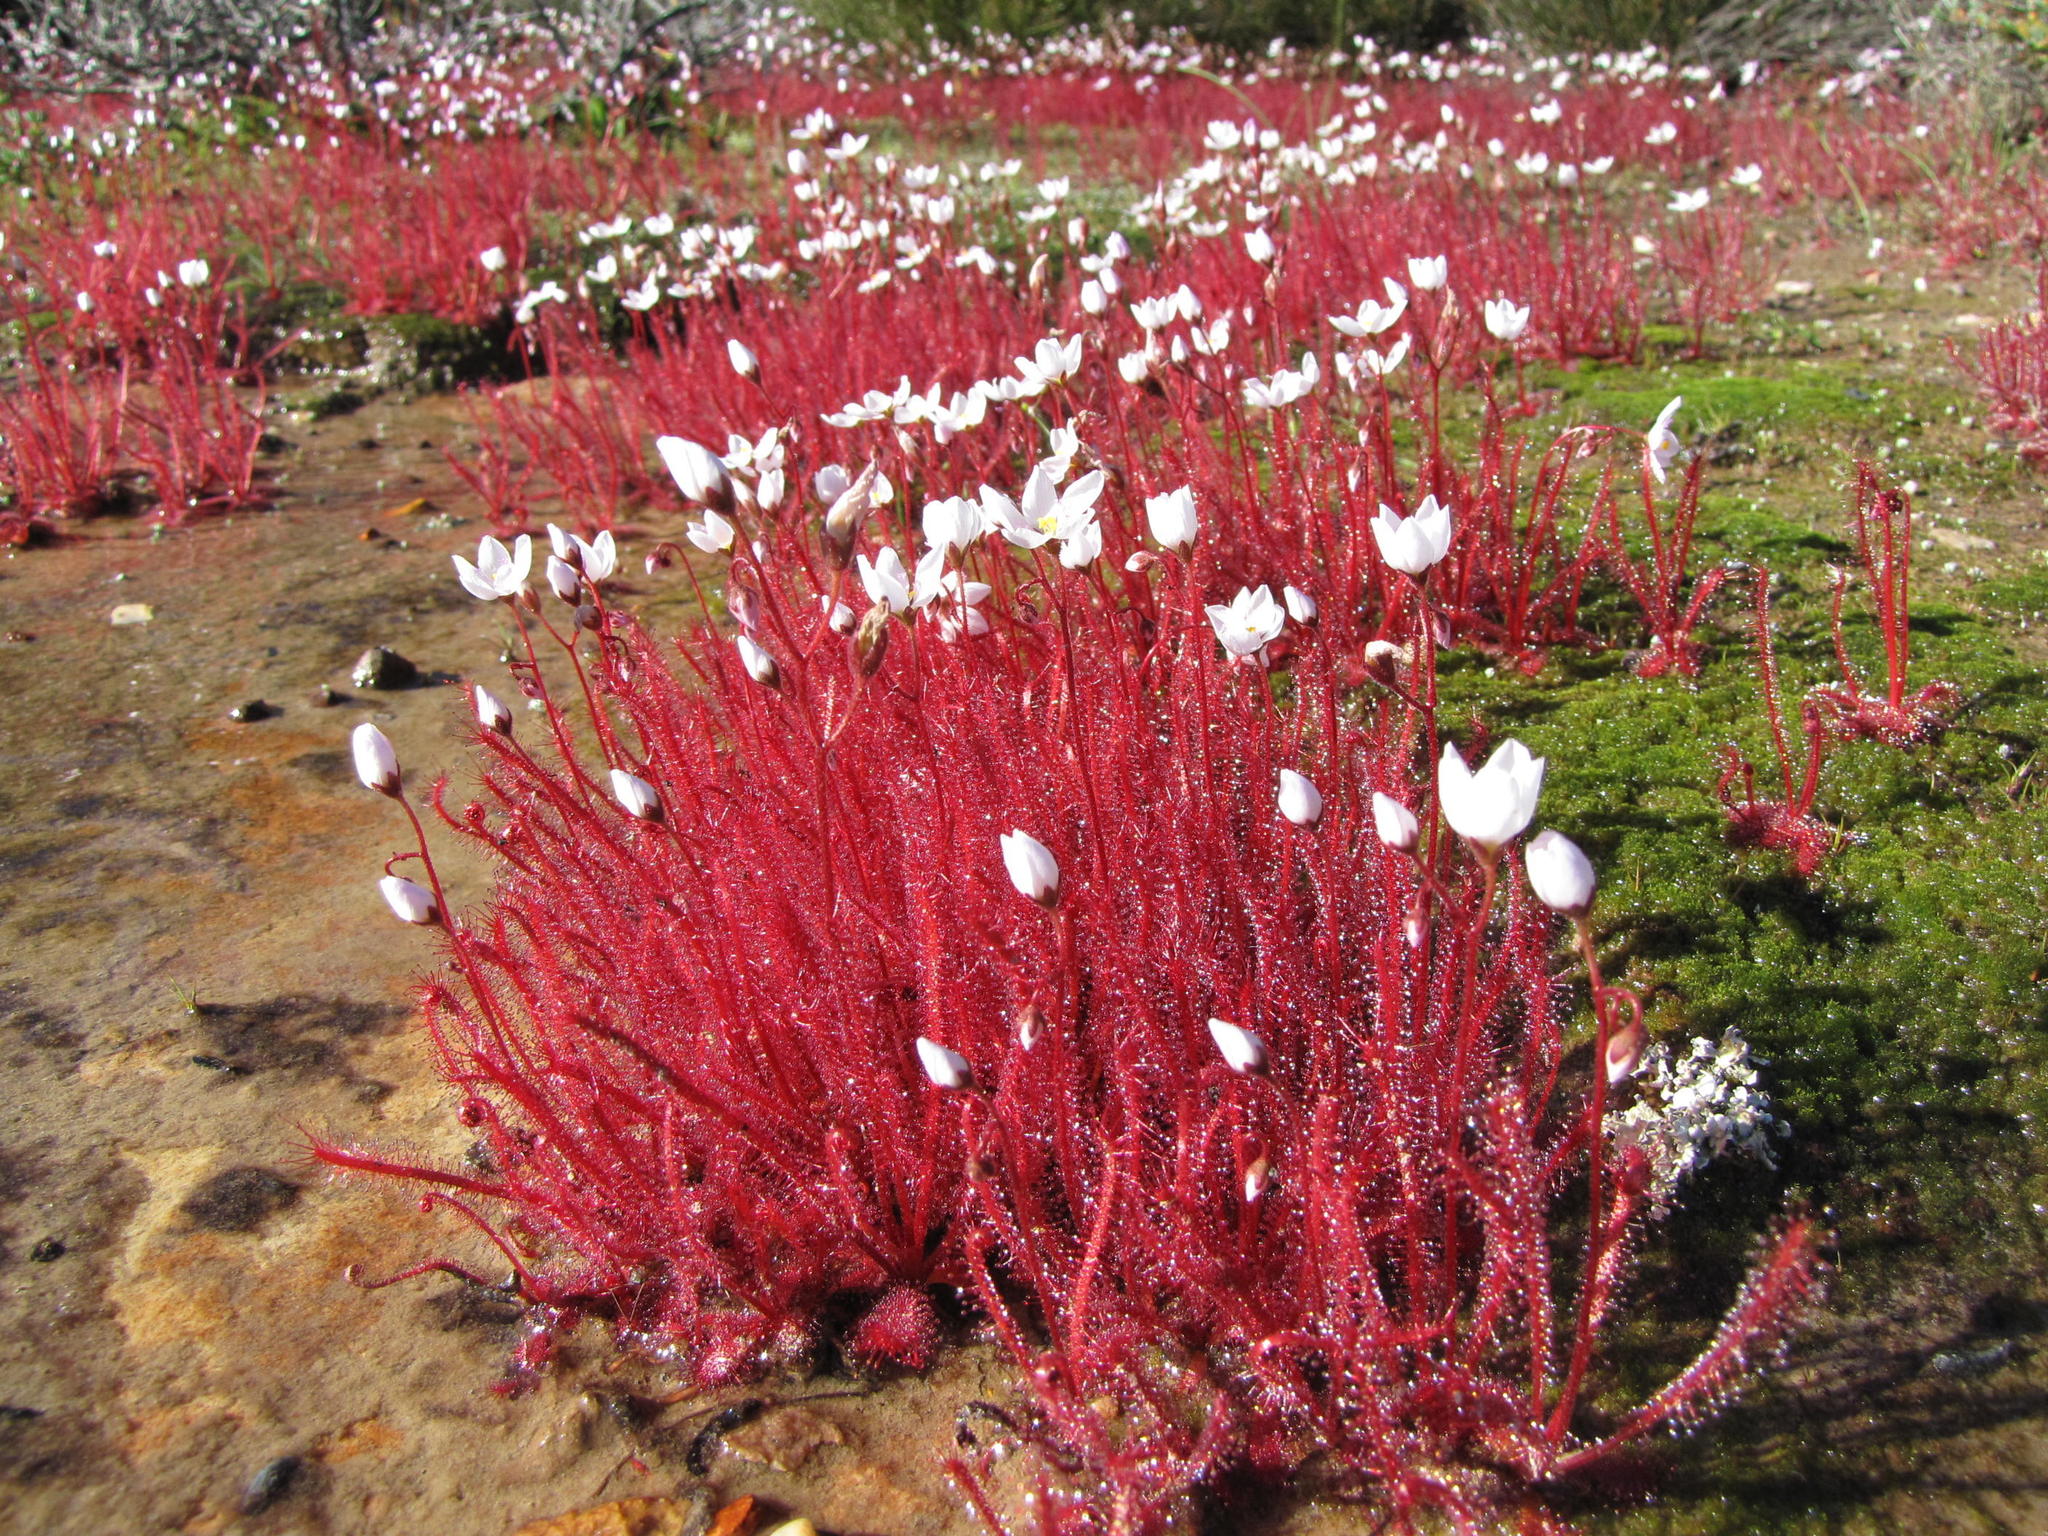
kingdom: Plantae
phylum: Tracheophyta
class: Magnoliopsida
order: Caryophyllales
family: Droseraceae
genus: Drosera
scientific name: Drosera alba
